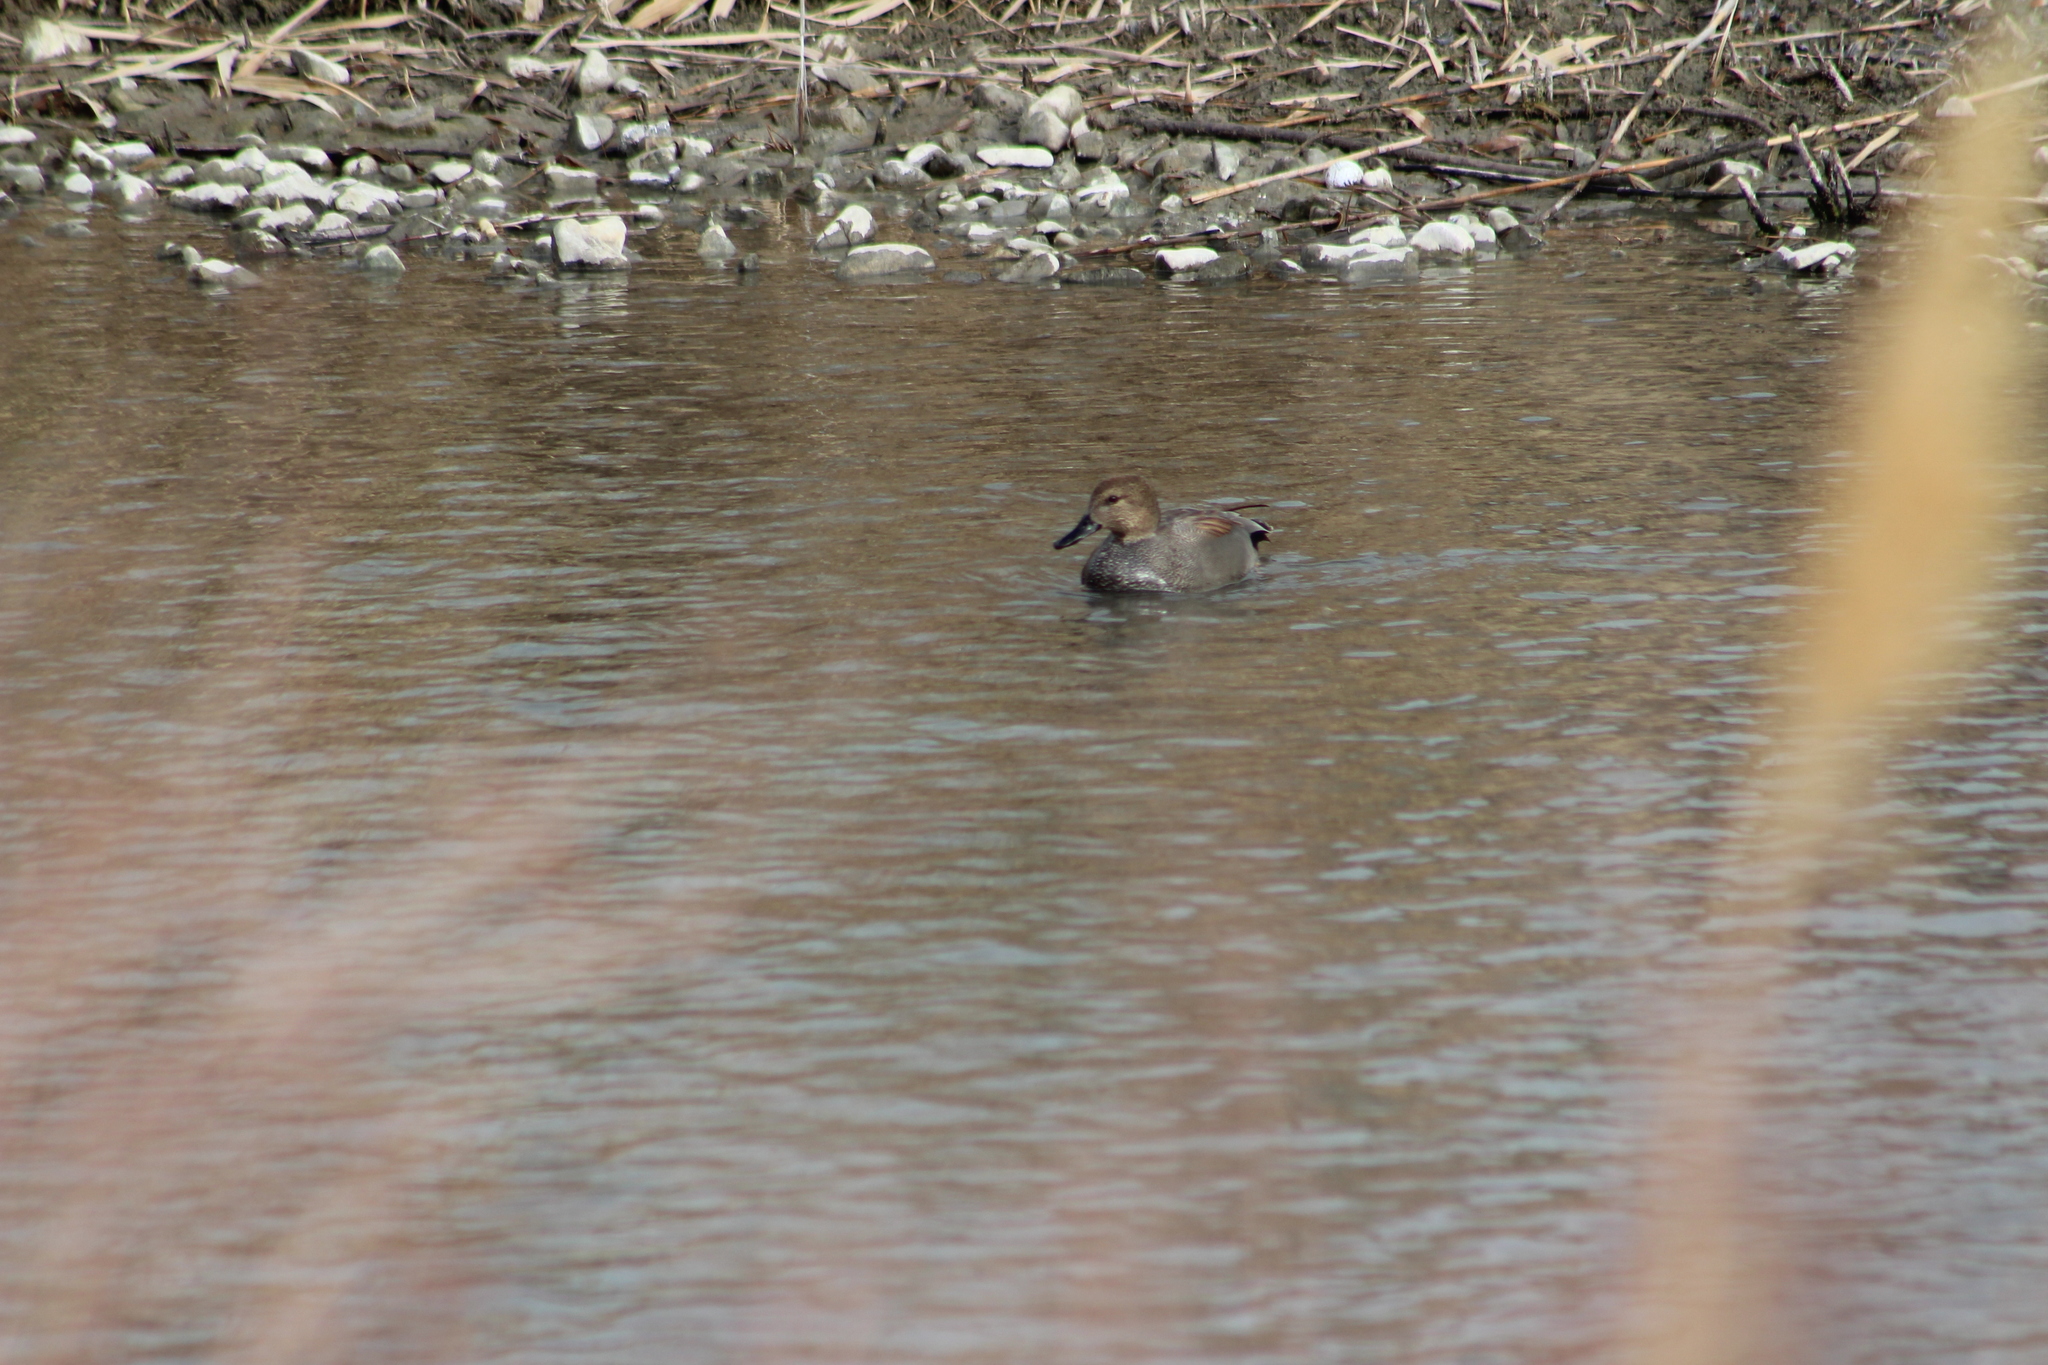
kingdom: Animalia
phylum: Chordata
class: Aves
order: Anseriformes
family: Anatidae
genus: Mareca
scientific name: Mareca strepera
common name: Gadwall
